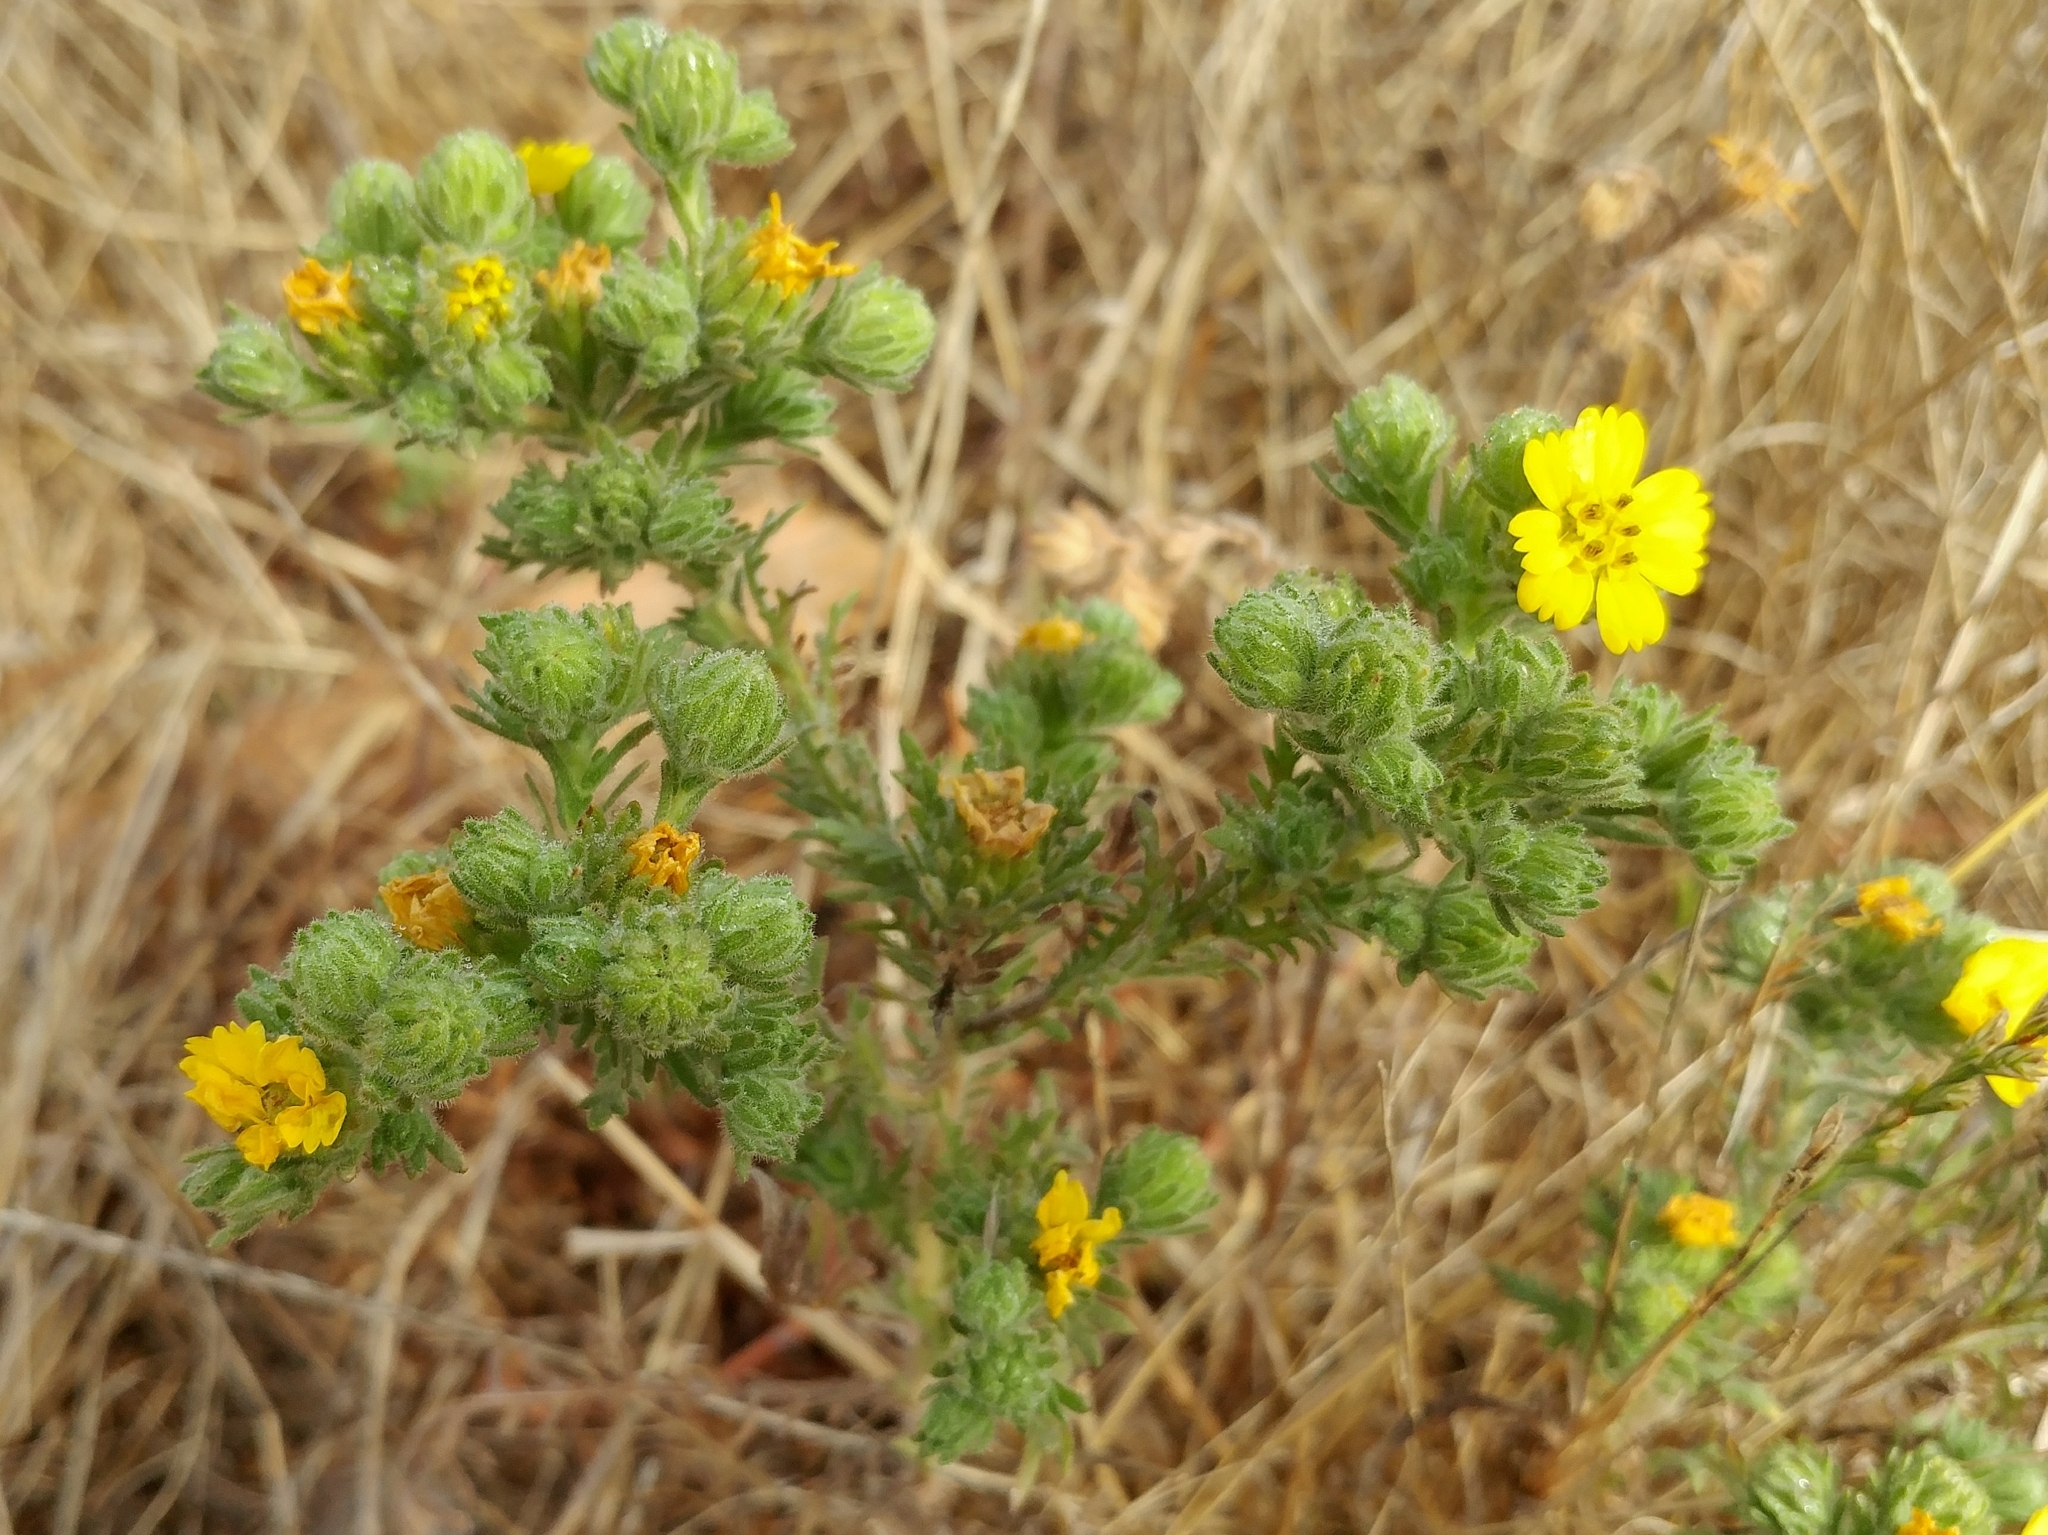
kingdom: Plantae
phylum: Tracheophyta
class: Magnoliopsida
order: Asterales
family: Asteraceae
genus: Deinandra
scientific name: Deinandra increscens
